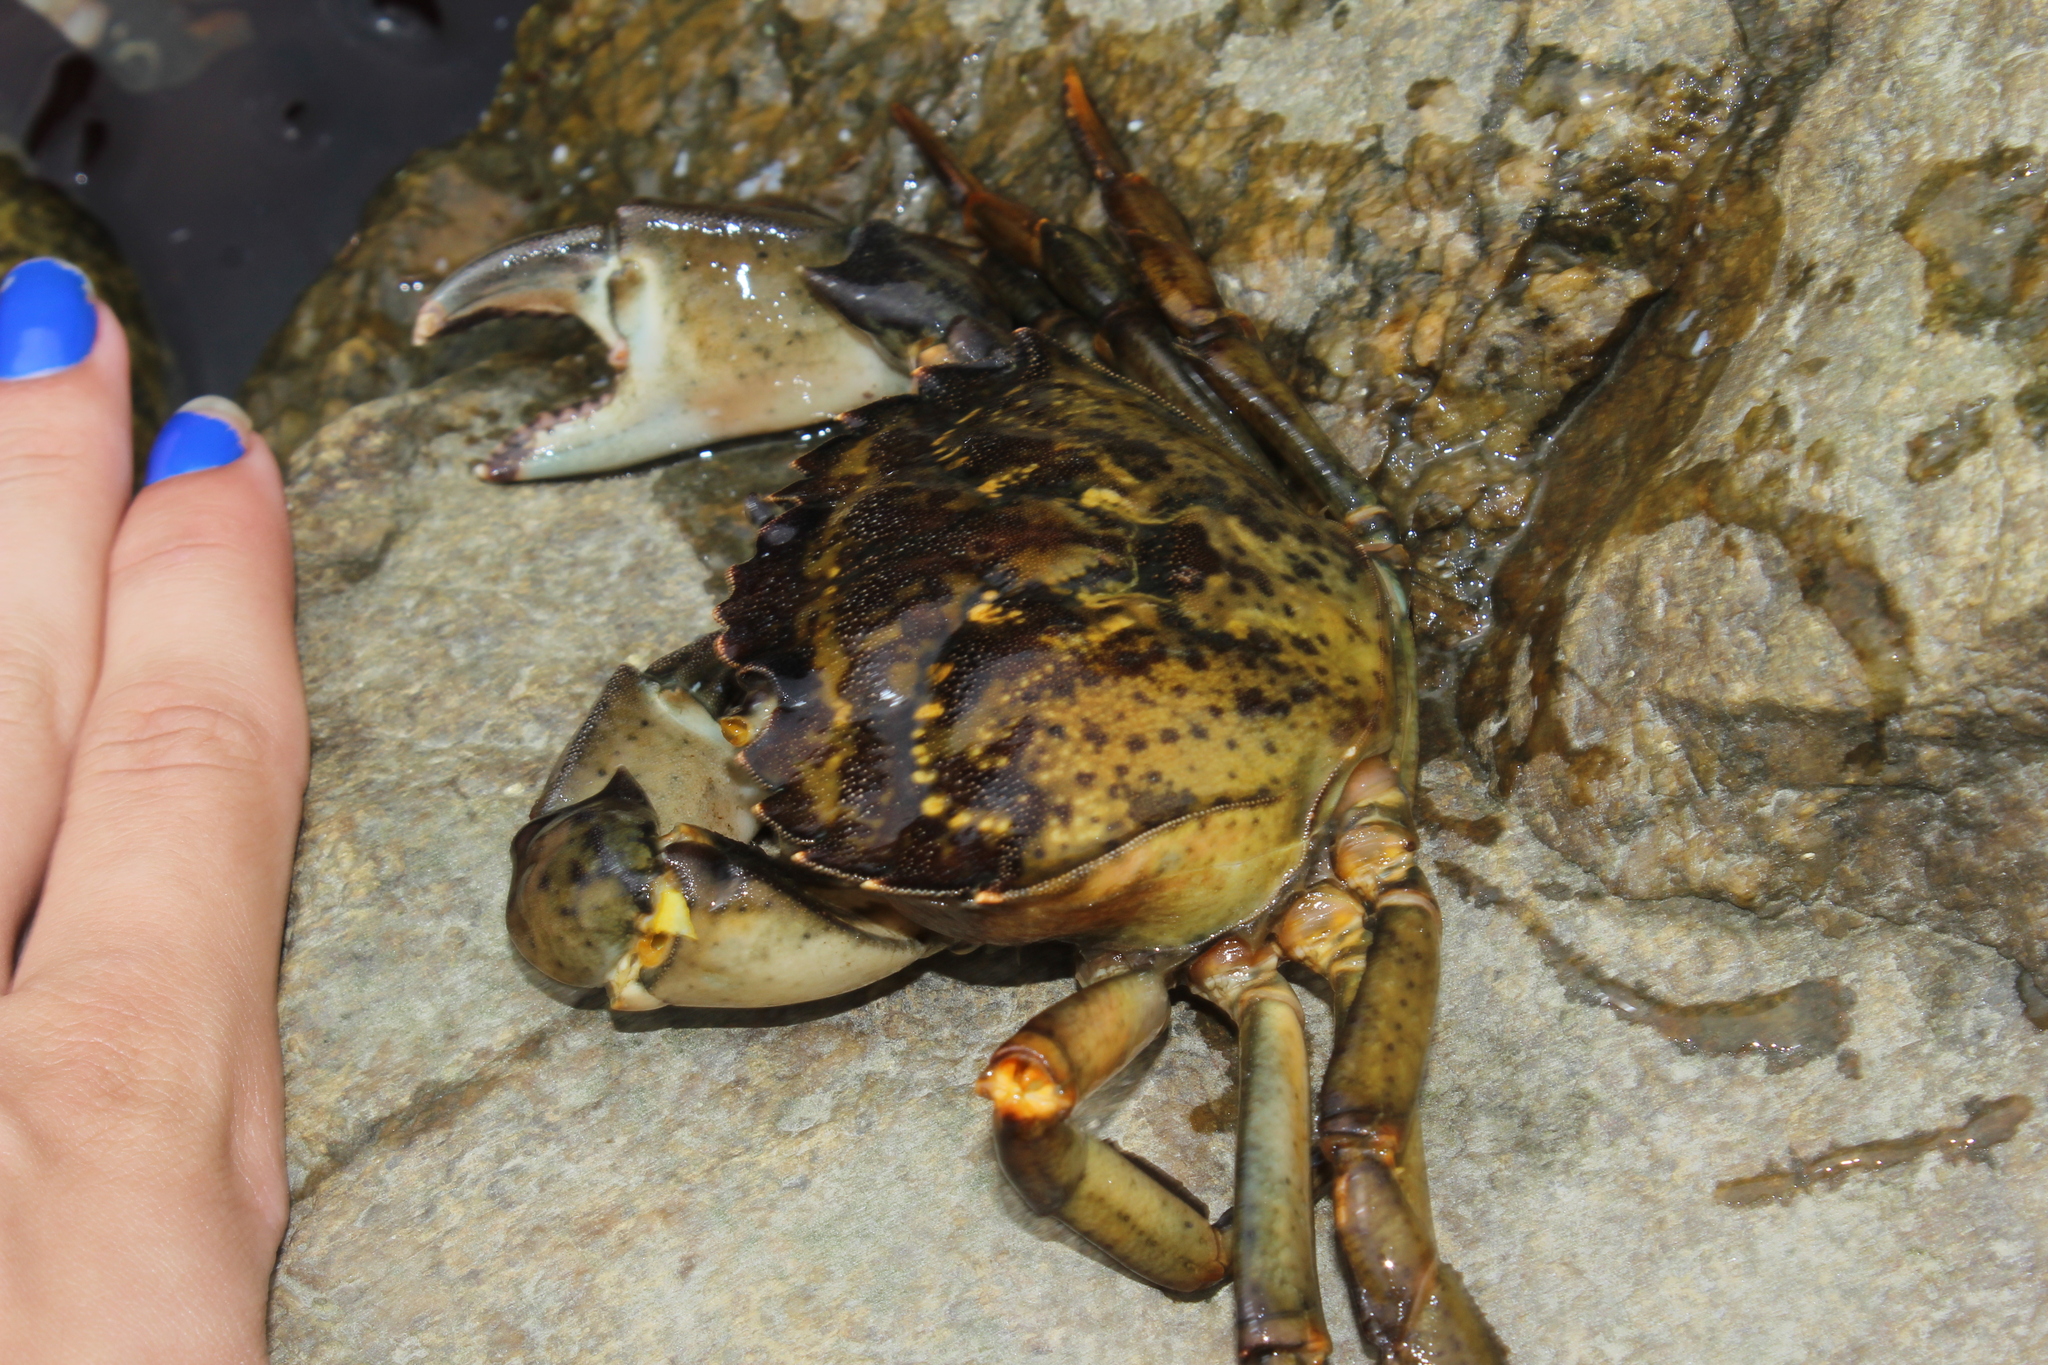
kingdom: Animalia
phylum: Arthropoda
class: Malacostraca
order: Decapoda
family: Carcinidae
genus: Carcinus
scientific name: Carcinus maenas
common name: European green crab
